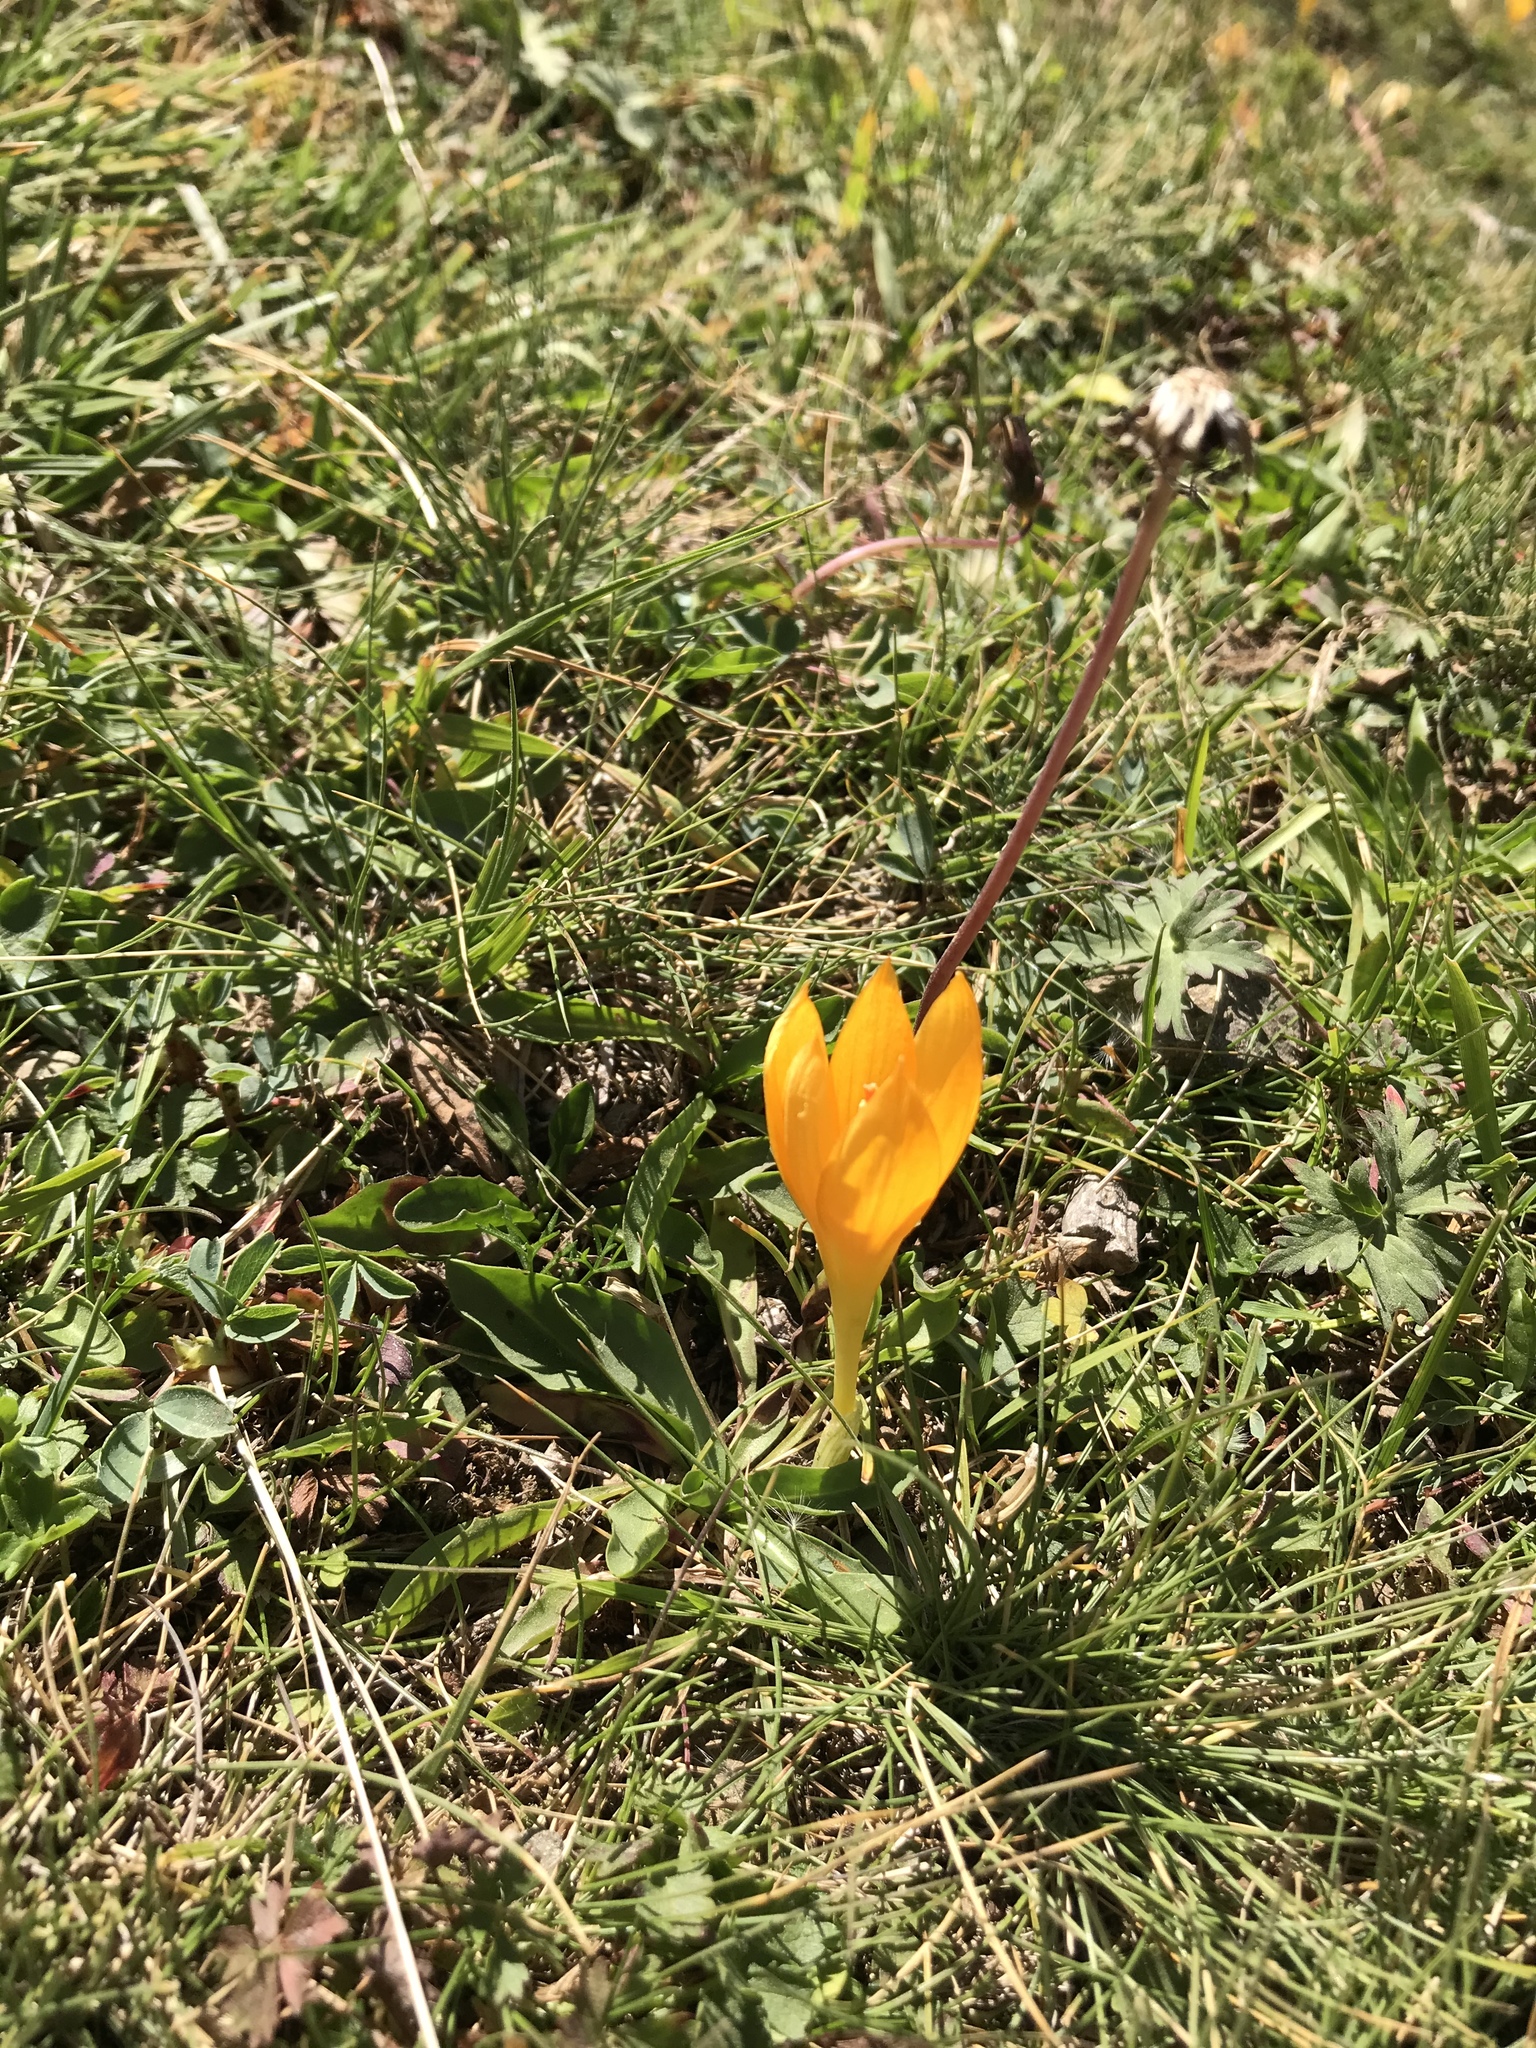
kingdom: Plantae
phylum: Tracheophyta
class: Liliopsida
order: Asparagales
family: Iridaceae
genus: Crocus
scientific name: Crocus scharojanii
